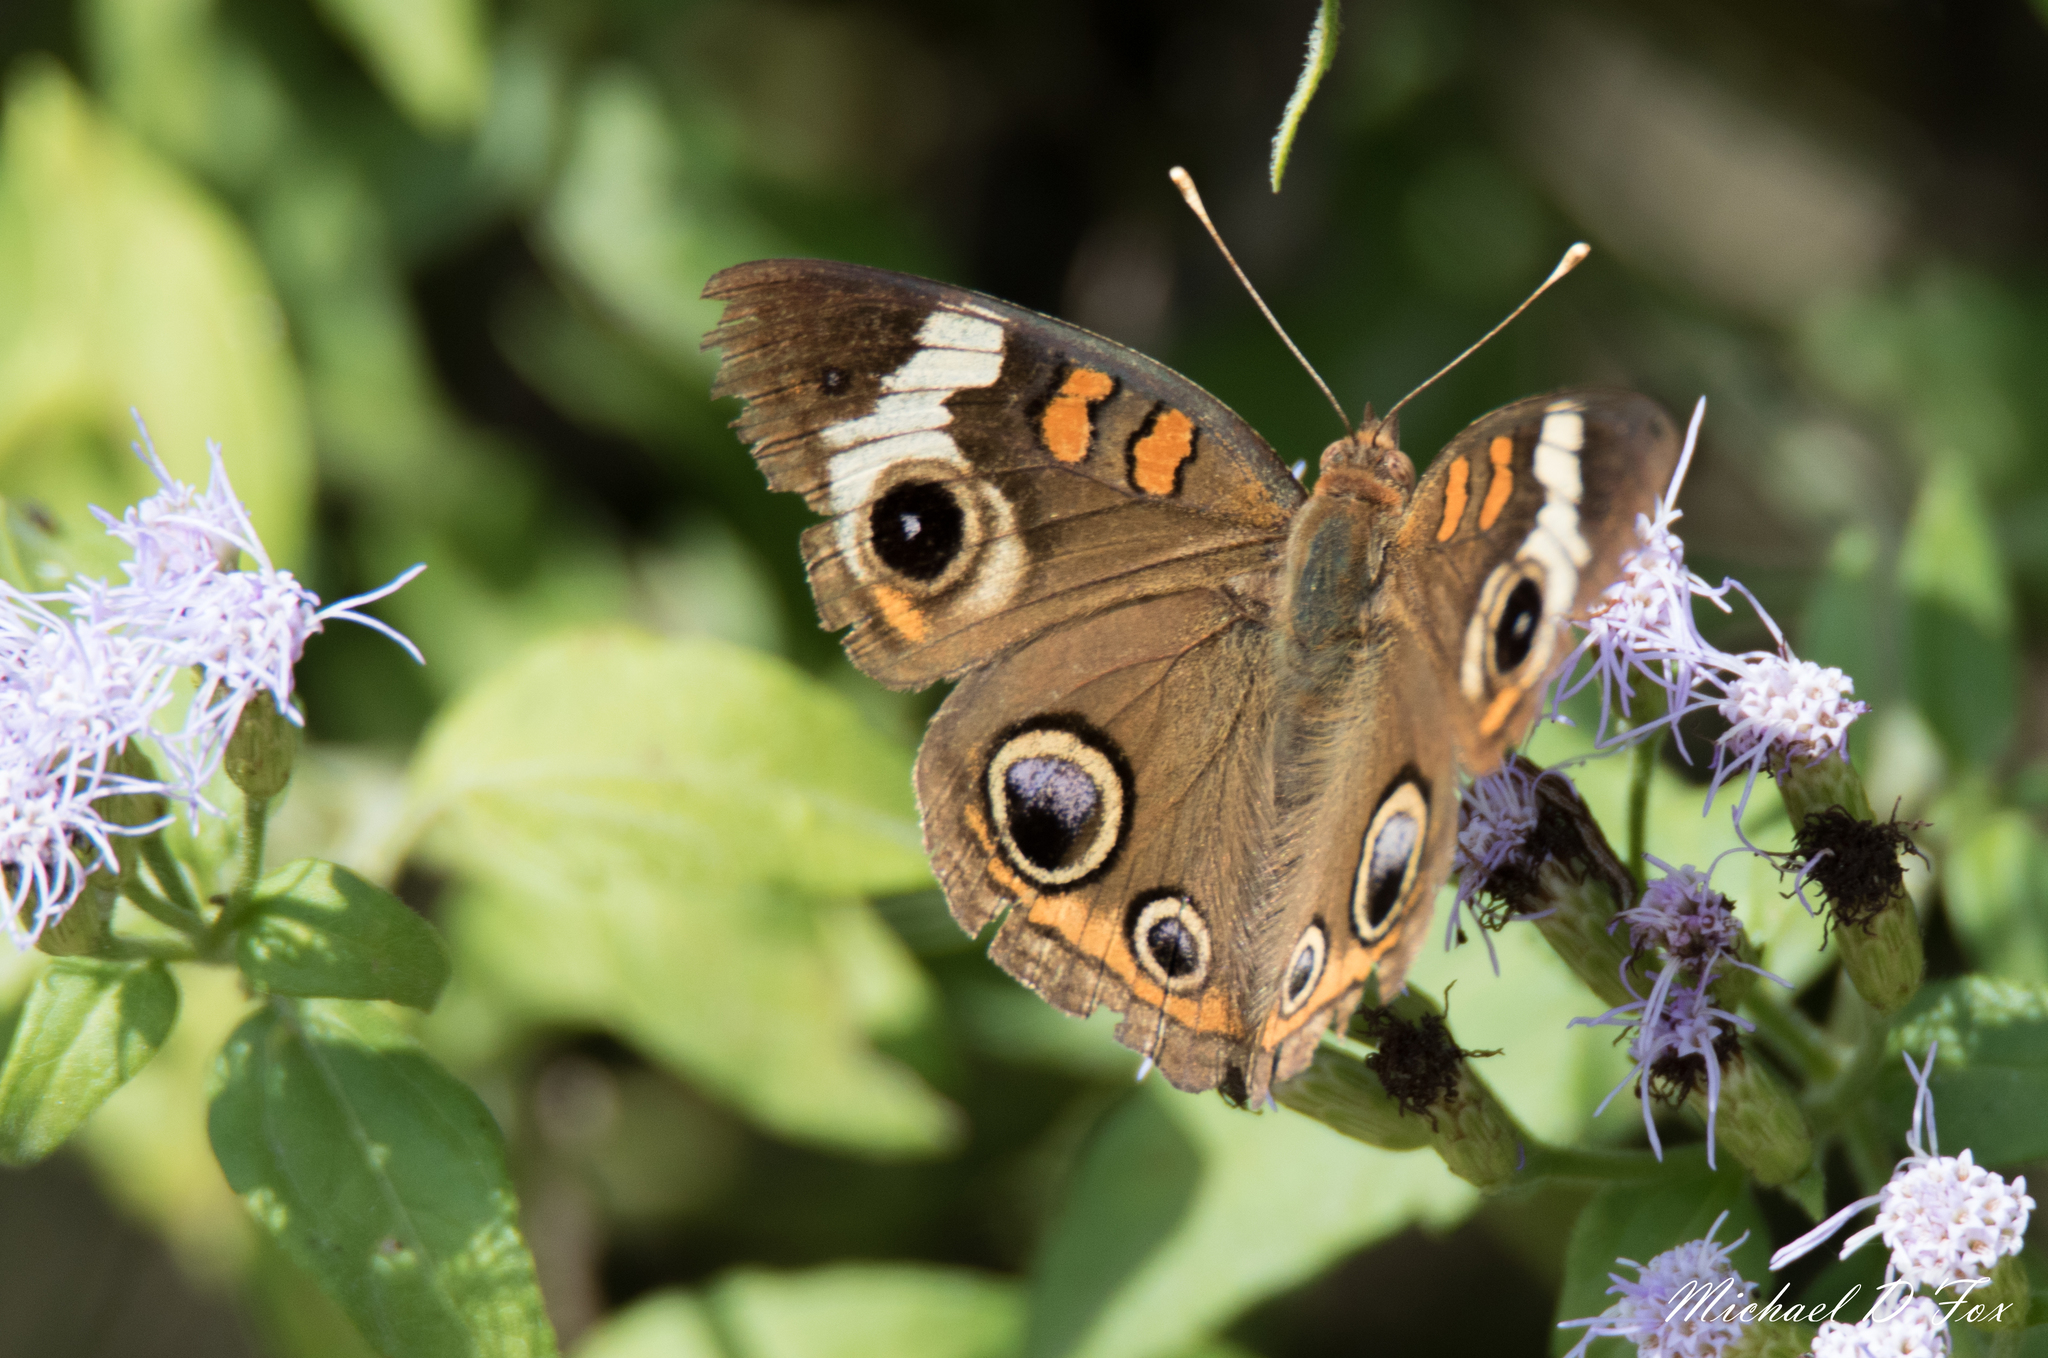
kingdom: Animalia
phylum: Arthropoda
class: Insecta
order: Lepidoptera
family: Nymphalidae
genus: Junonia
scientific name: Junonia coenia
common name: Common buckeye
